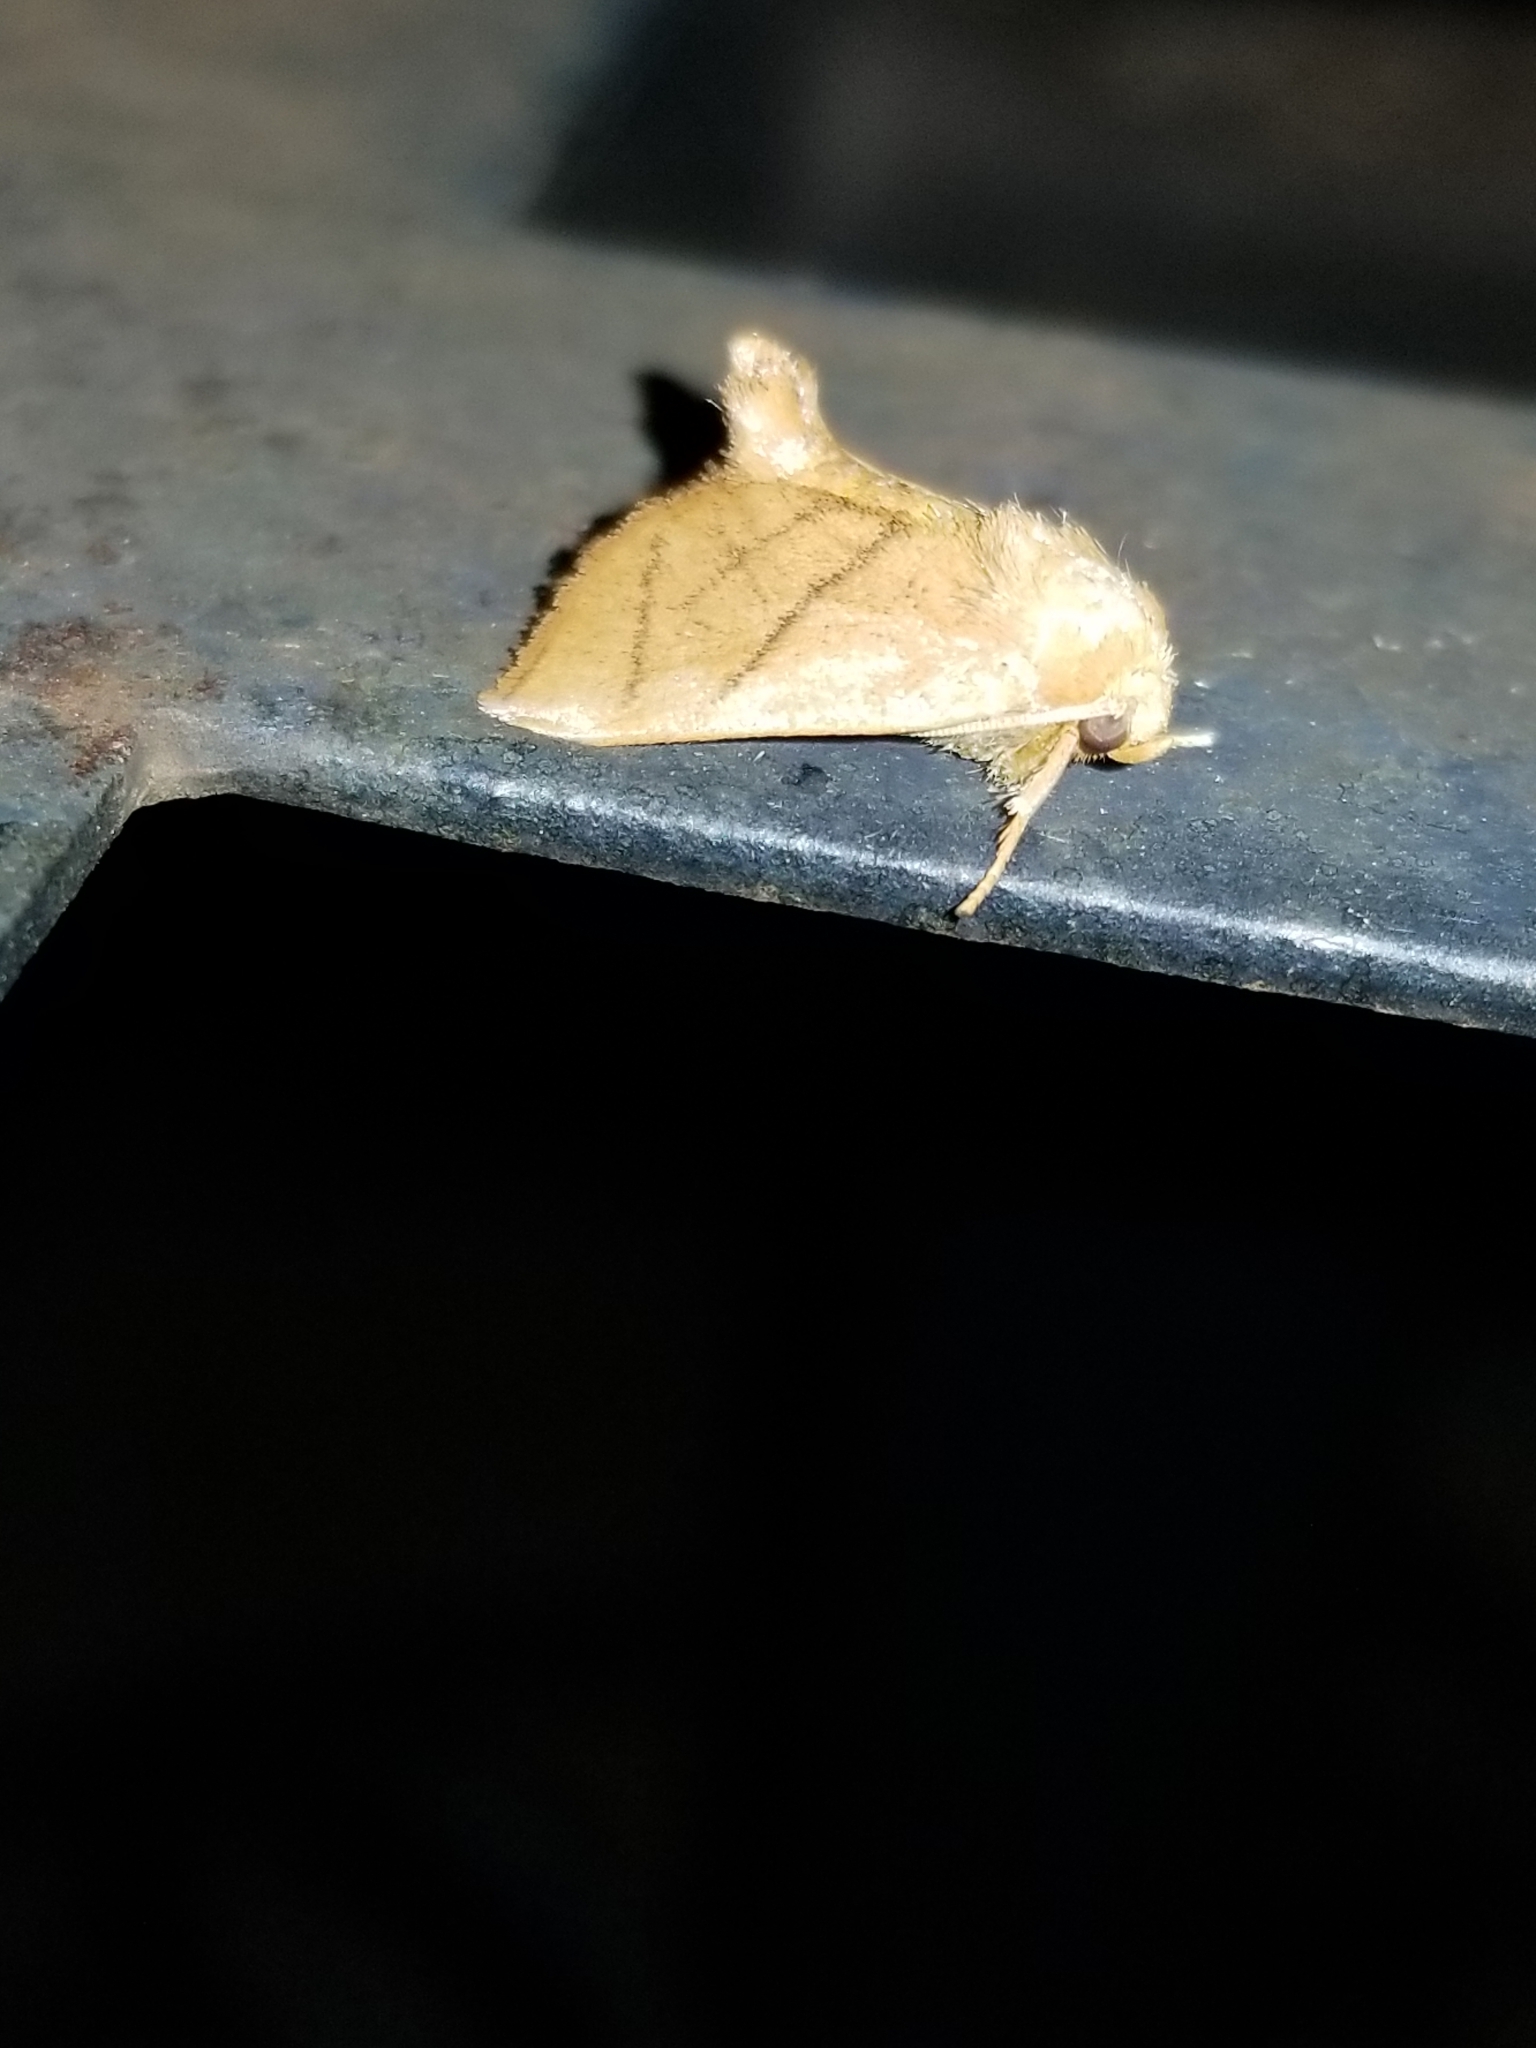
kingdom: Animalia
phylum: Arthropoda
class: Insecta
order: Lepidoptera
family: Limacodidae
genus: Apoda
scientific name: Apoda y-inversa
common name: Yellow-collared slug moth
